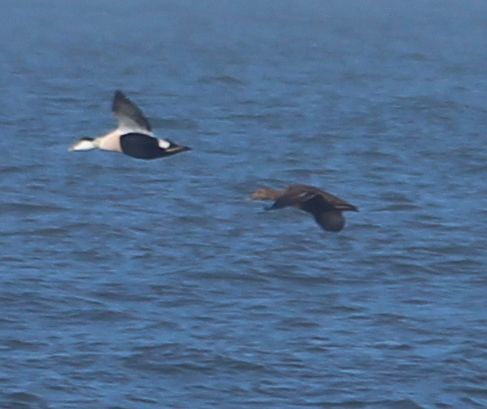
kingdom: Animalia
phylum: Chordata
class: Aves
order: Anseriformes
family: Anatidae
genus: Somateria
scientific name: Somateria mollissima
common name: Common eider
